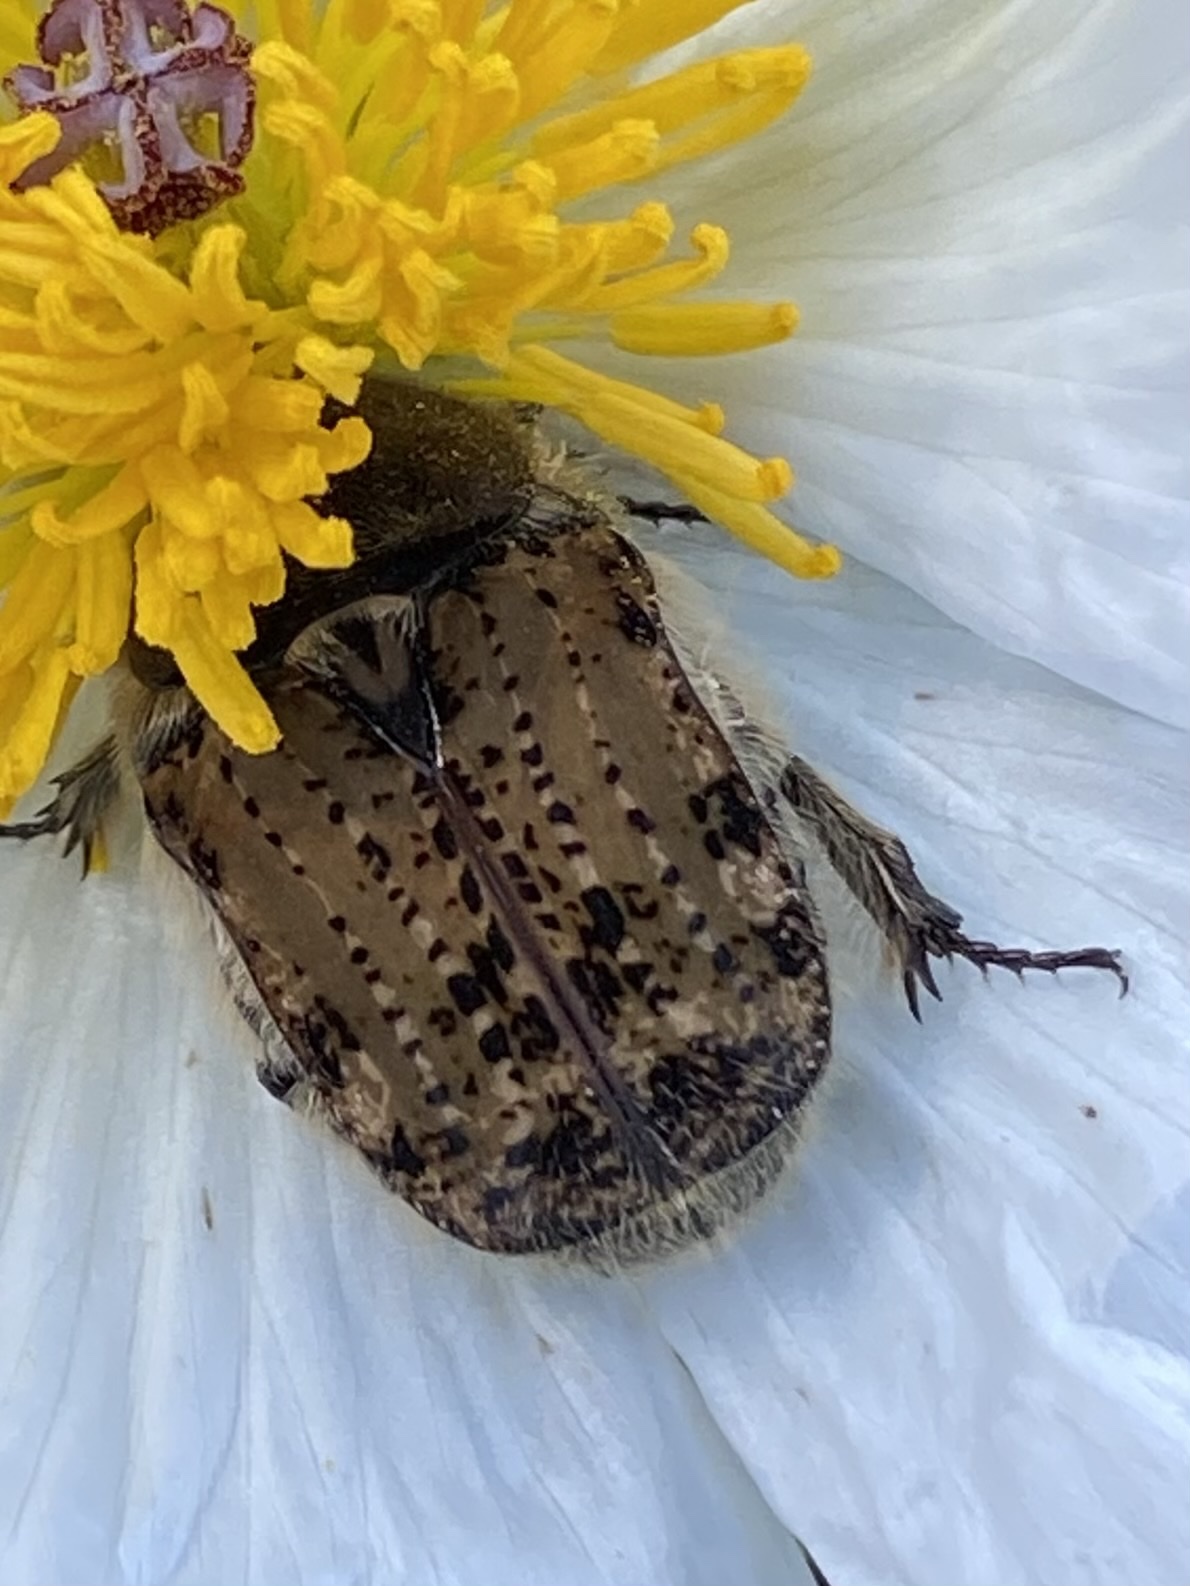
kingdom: Animalia
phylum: Arthropoda
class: Insecta
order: Coleoptera
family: Scarabaeidae
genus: Euphoria
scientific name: Euphoria inda
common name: Bumble flower beetle
